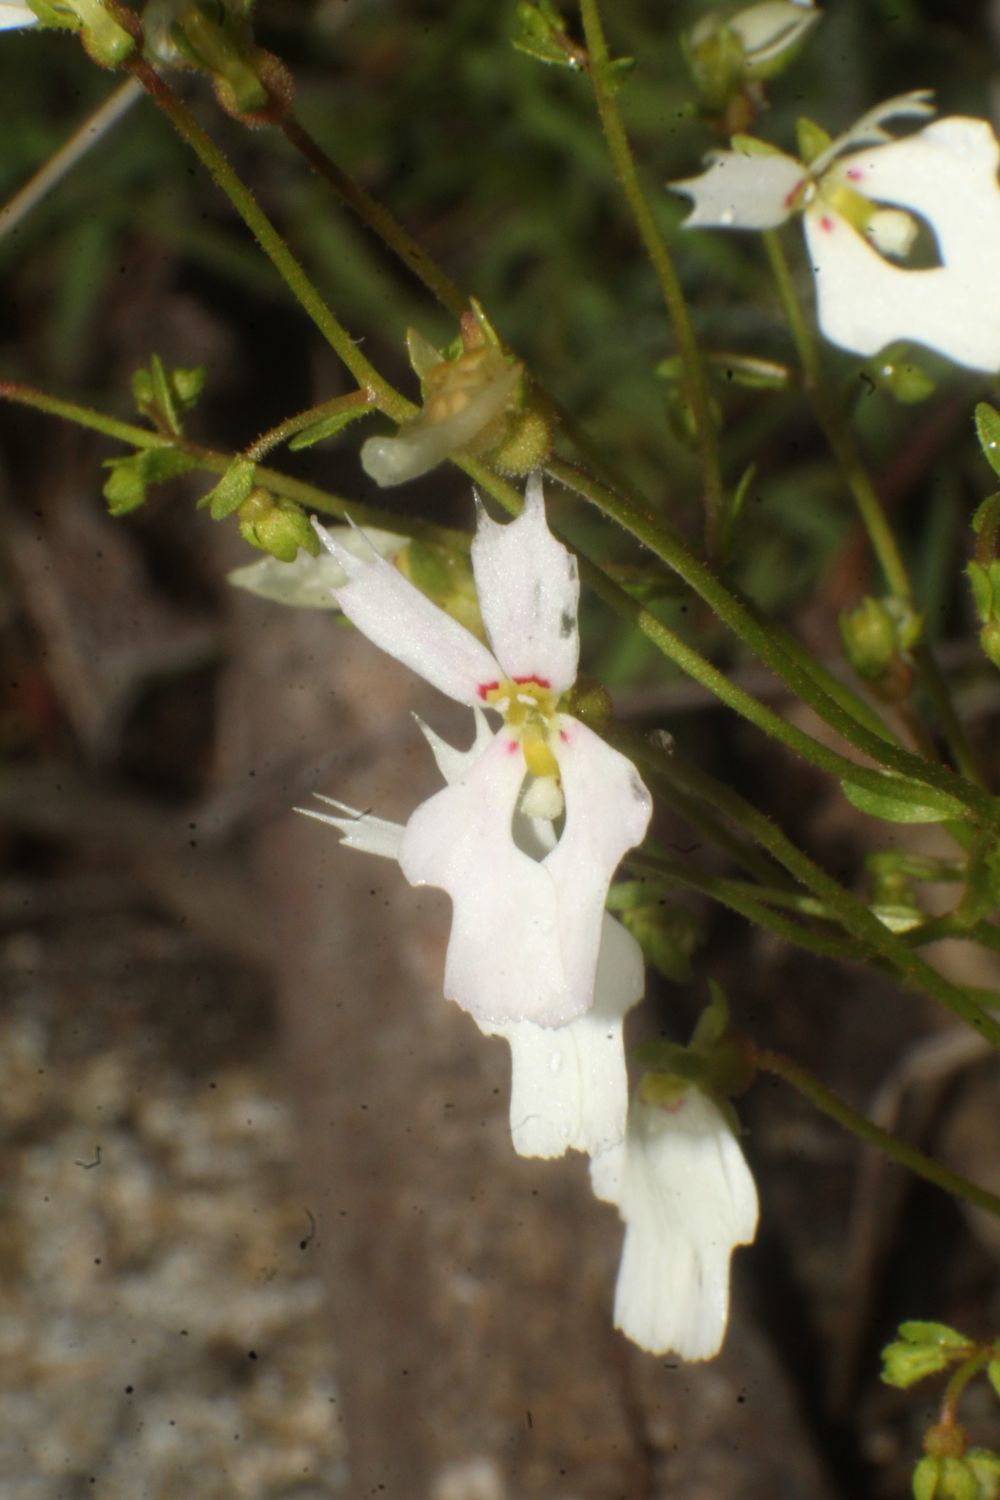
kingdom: Plantae
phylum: Tracheophyta
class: Magnoliopsida
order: Asterales
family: Stylidiaceae
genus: Stylidium
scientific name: Stylidium androsaceum
